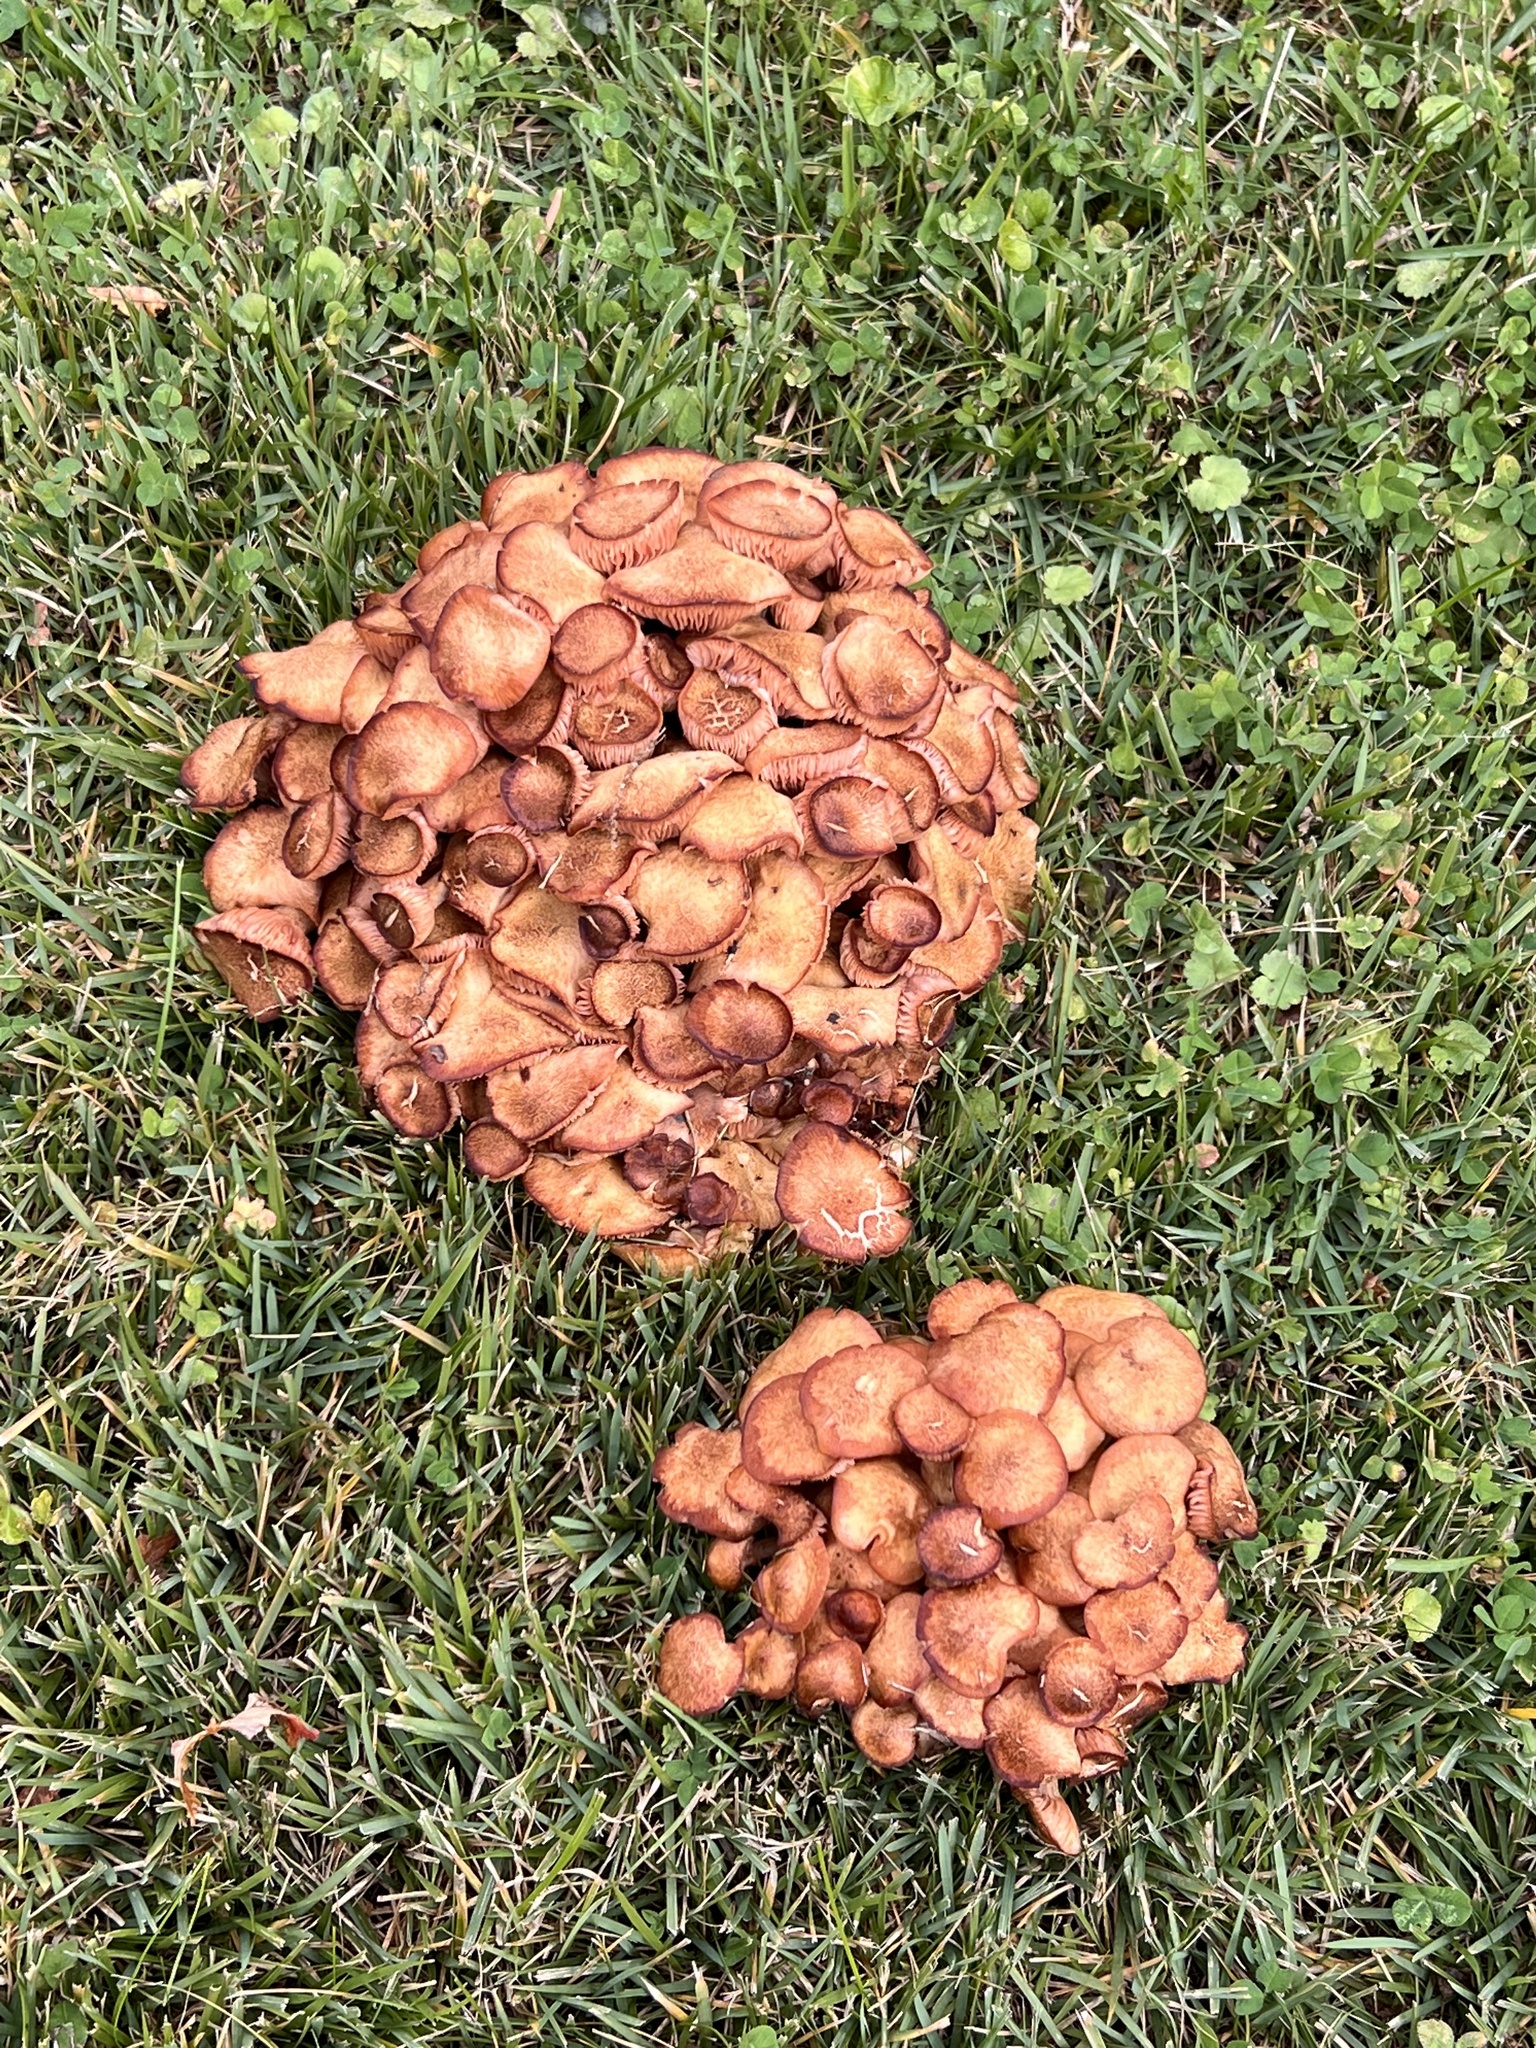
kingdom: Fungi
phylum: Basidiomycota
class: Agaricomycetes
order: Agaricales
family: Physalacriaceae
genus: Desarmillaria
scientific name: Desarmillaria caespitosa
